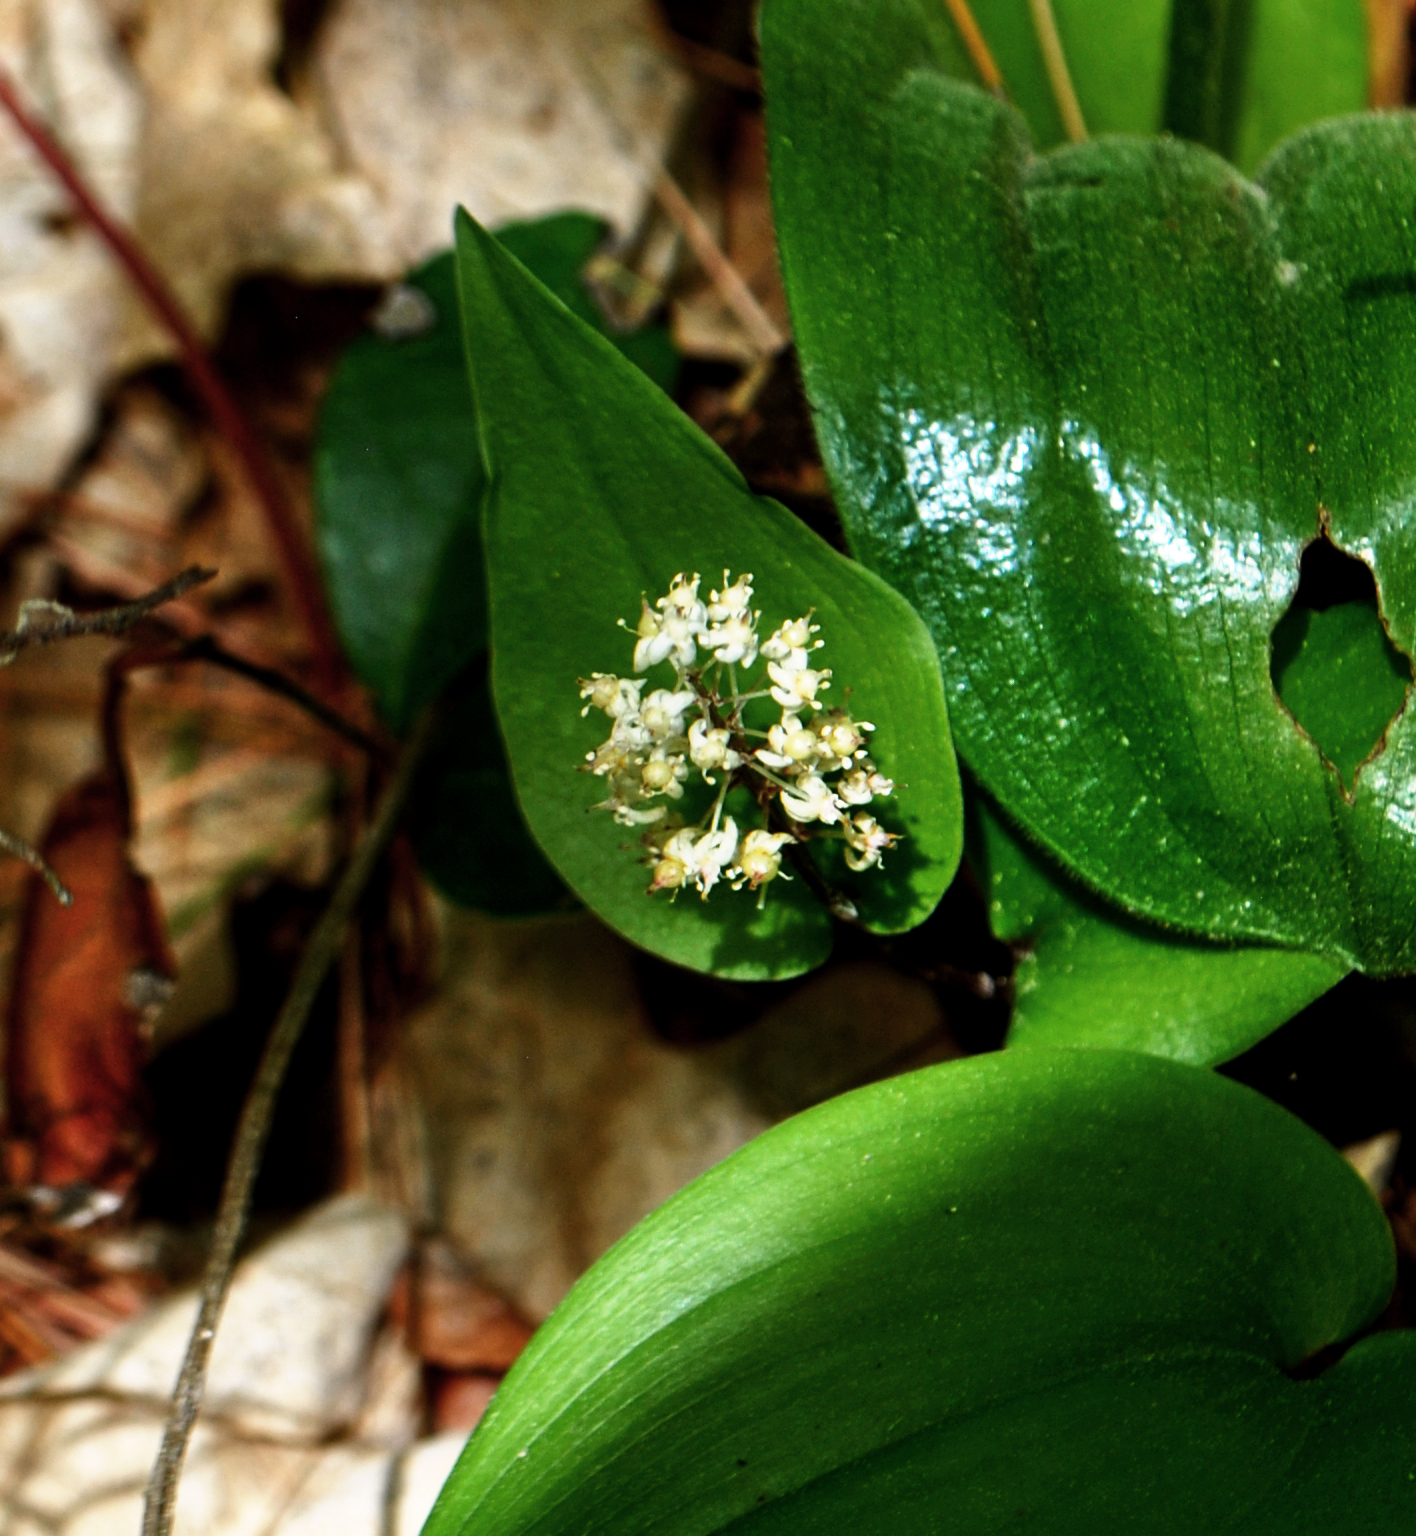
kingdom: Plantae
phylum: Tracheophyta
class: Liliopsida
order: Asparagales
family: Asparagaceae
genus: Maianthemum
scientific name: Maianthemum canadense
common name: False lily-of-the-valley
